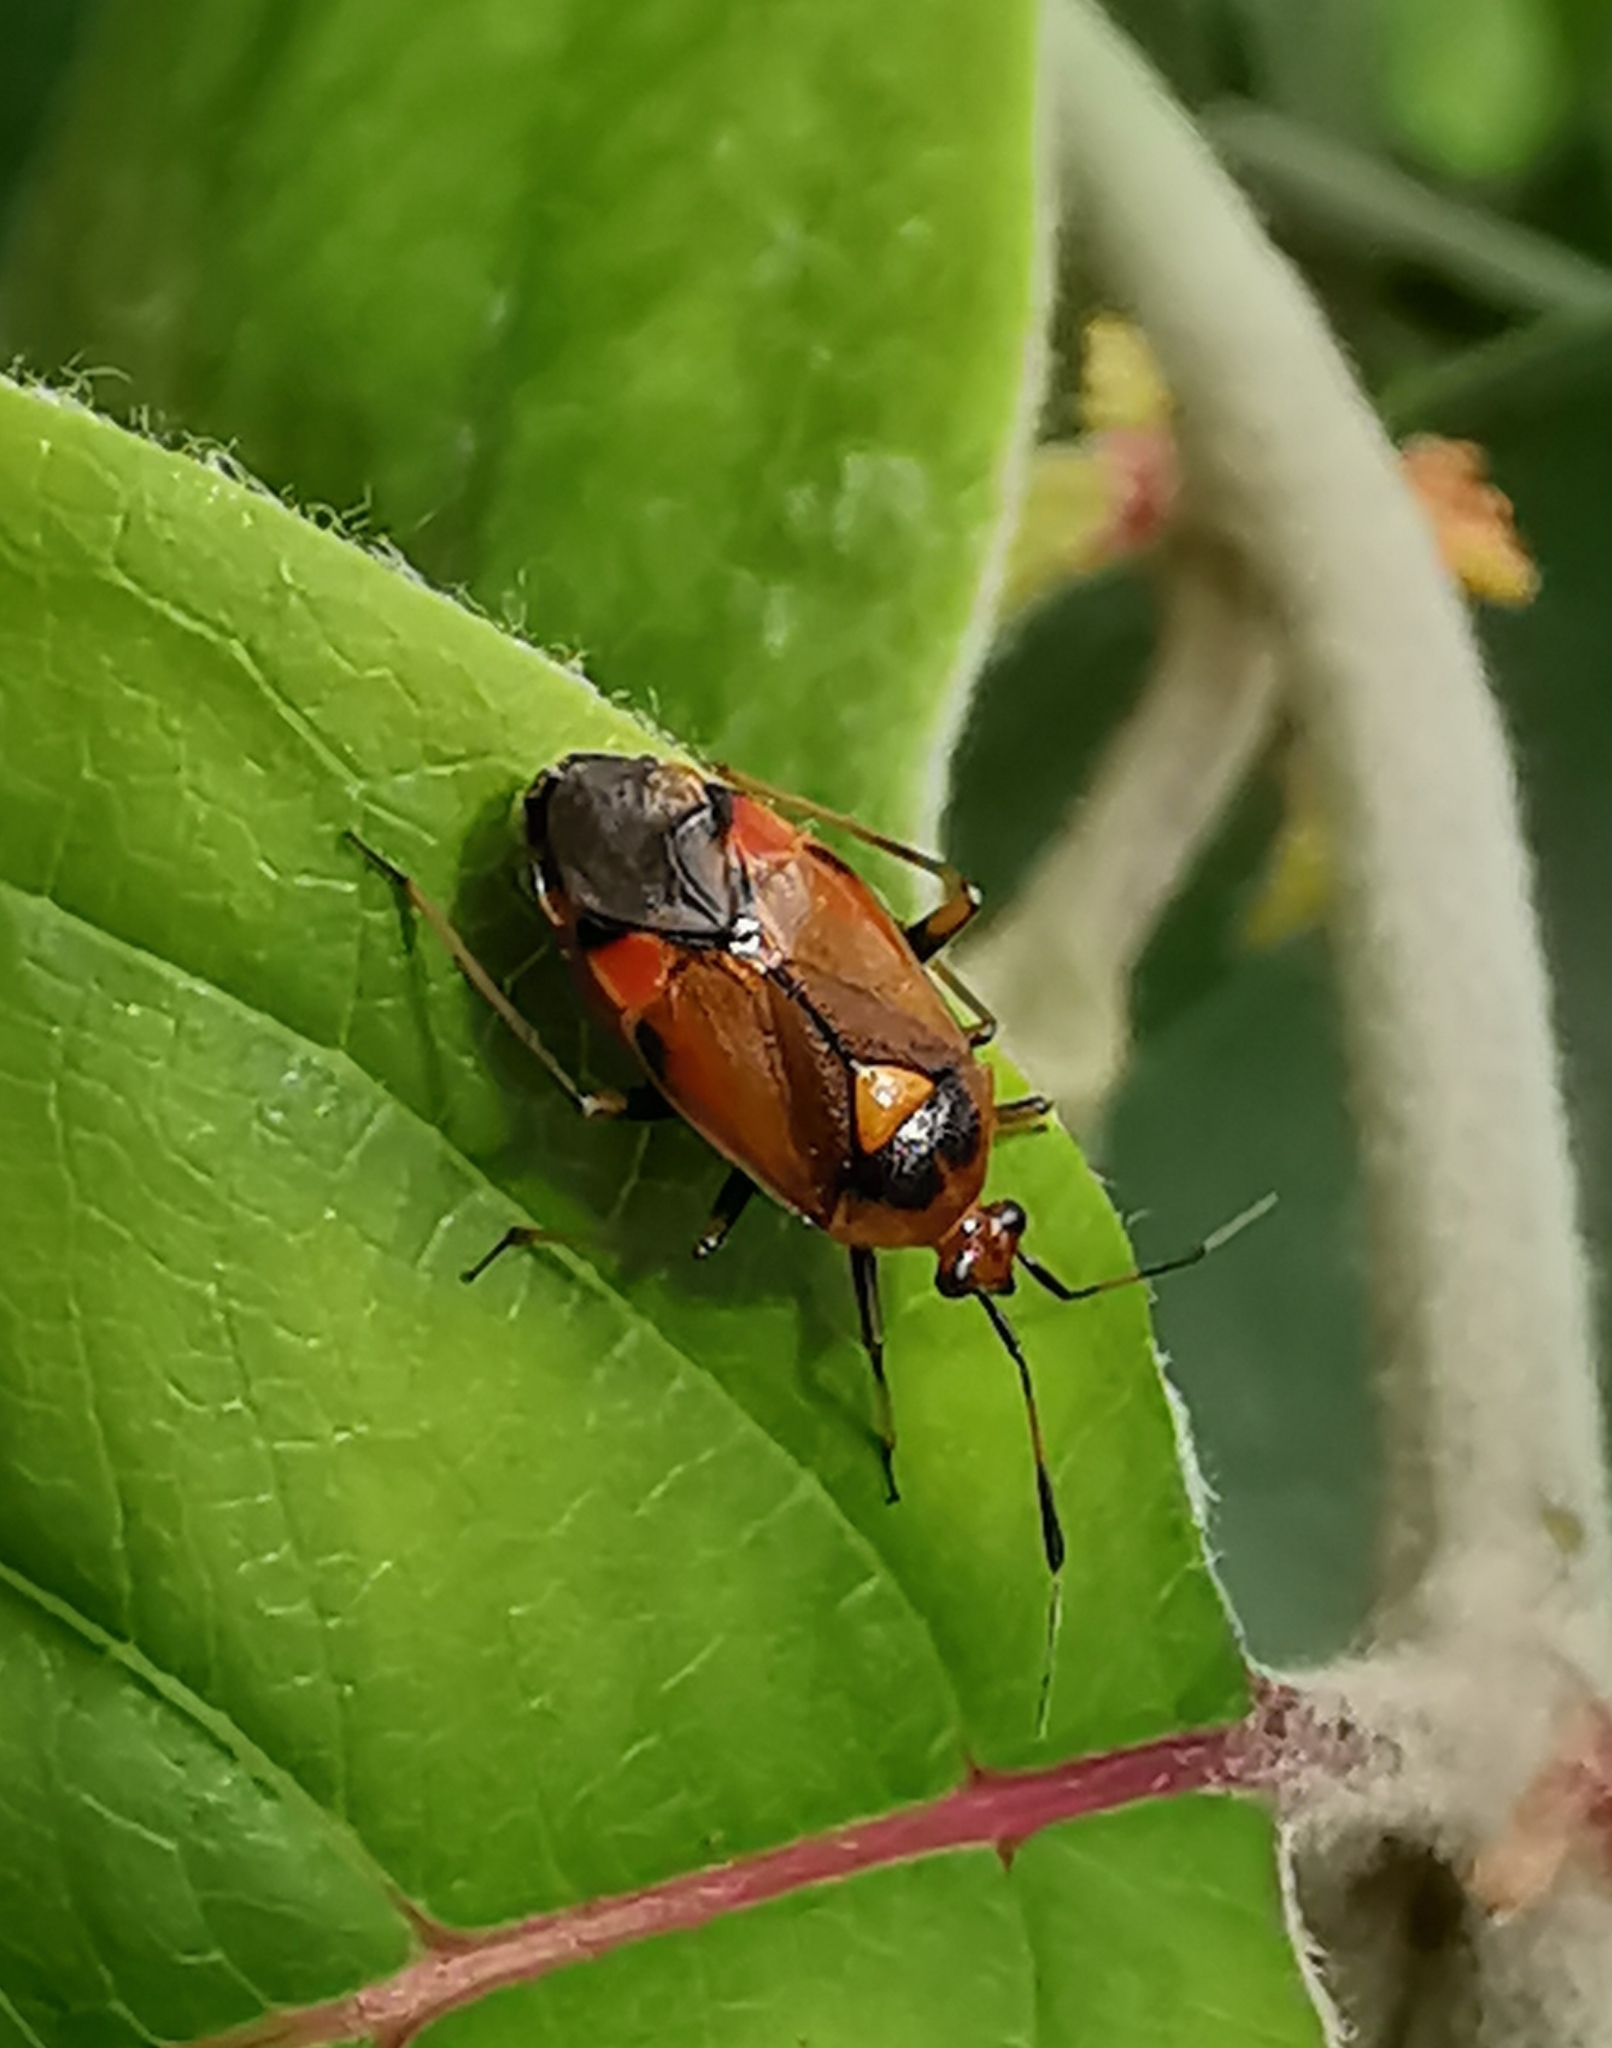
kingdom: Animalia
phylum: Arthropoda
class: Insecta
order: Hemiptera
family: Miridae
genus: Deraeocoris
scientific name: Deraeocoris ruber
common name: Plant bug
